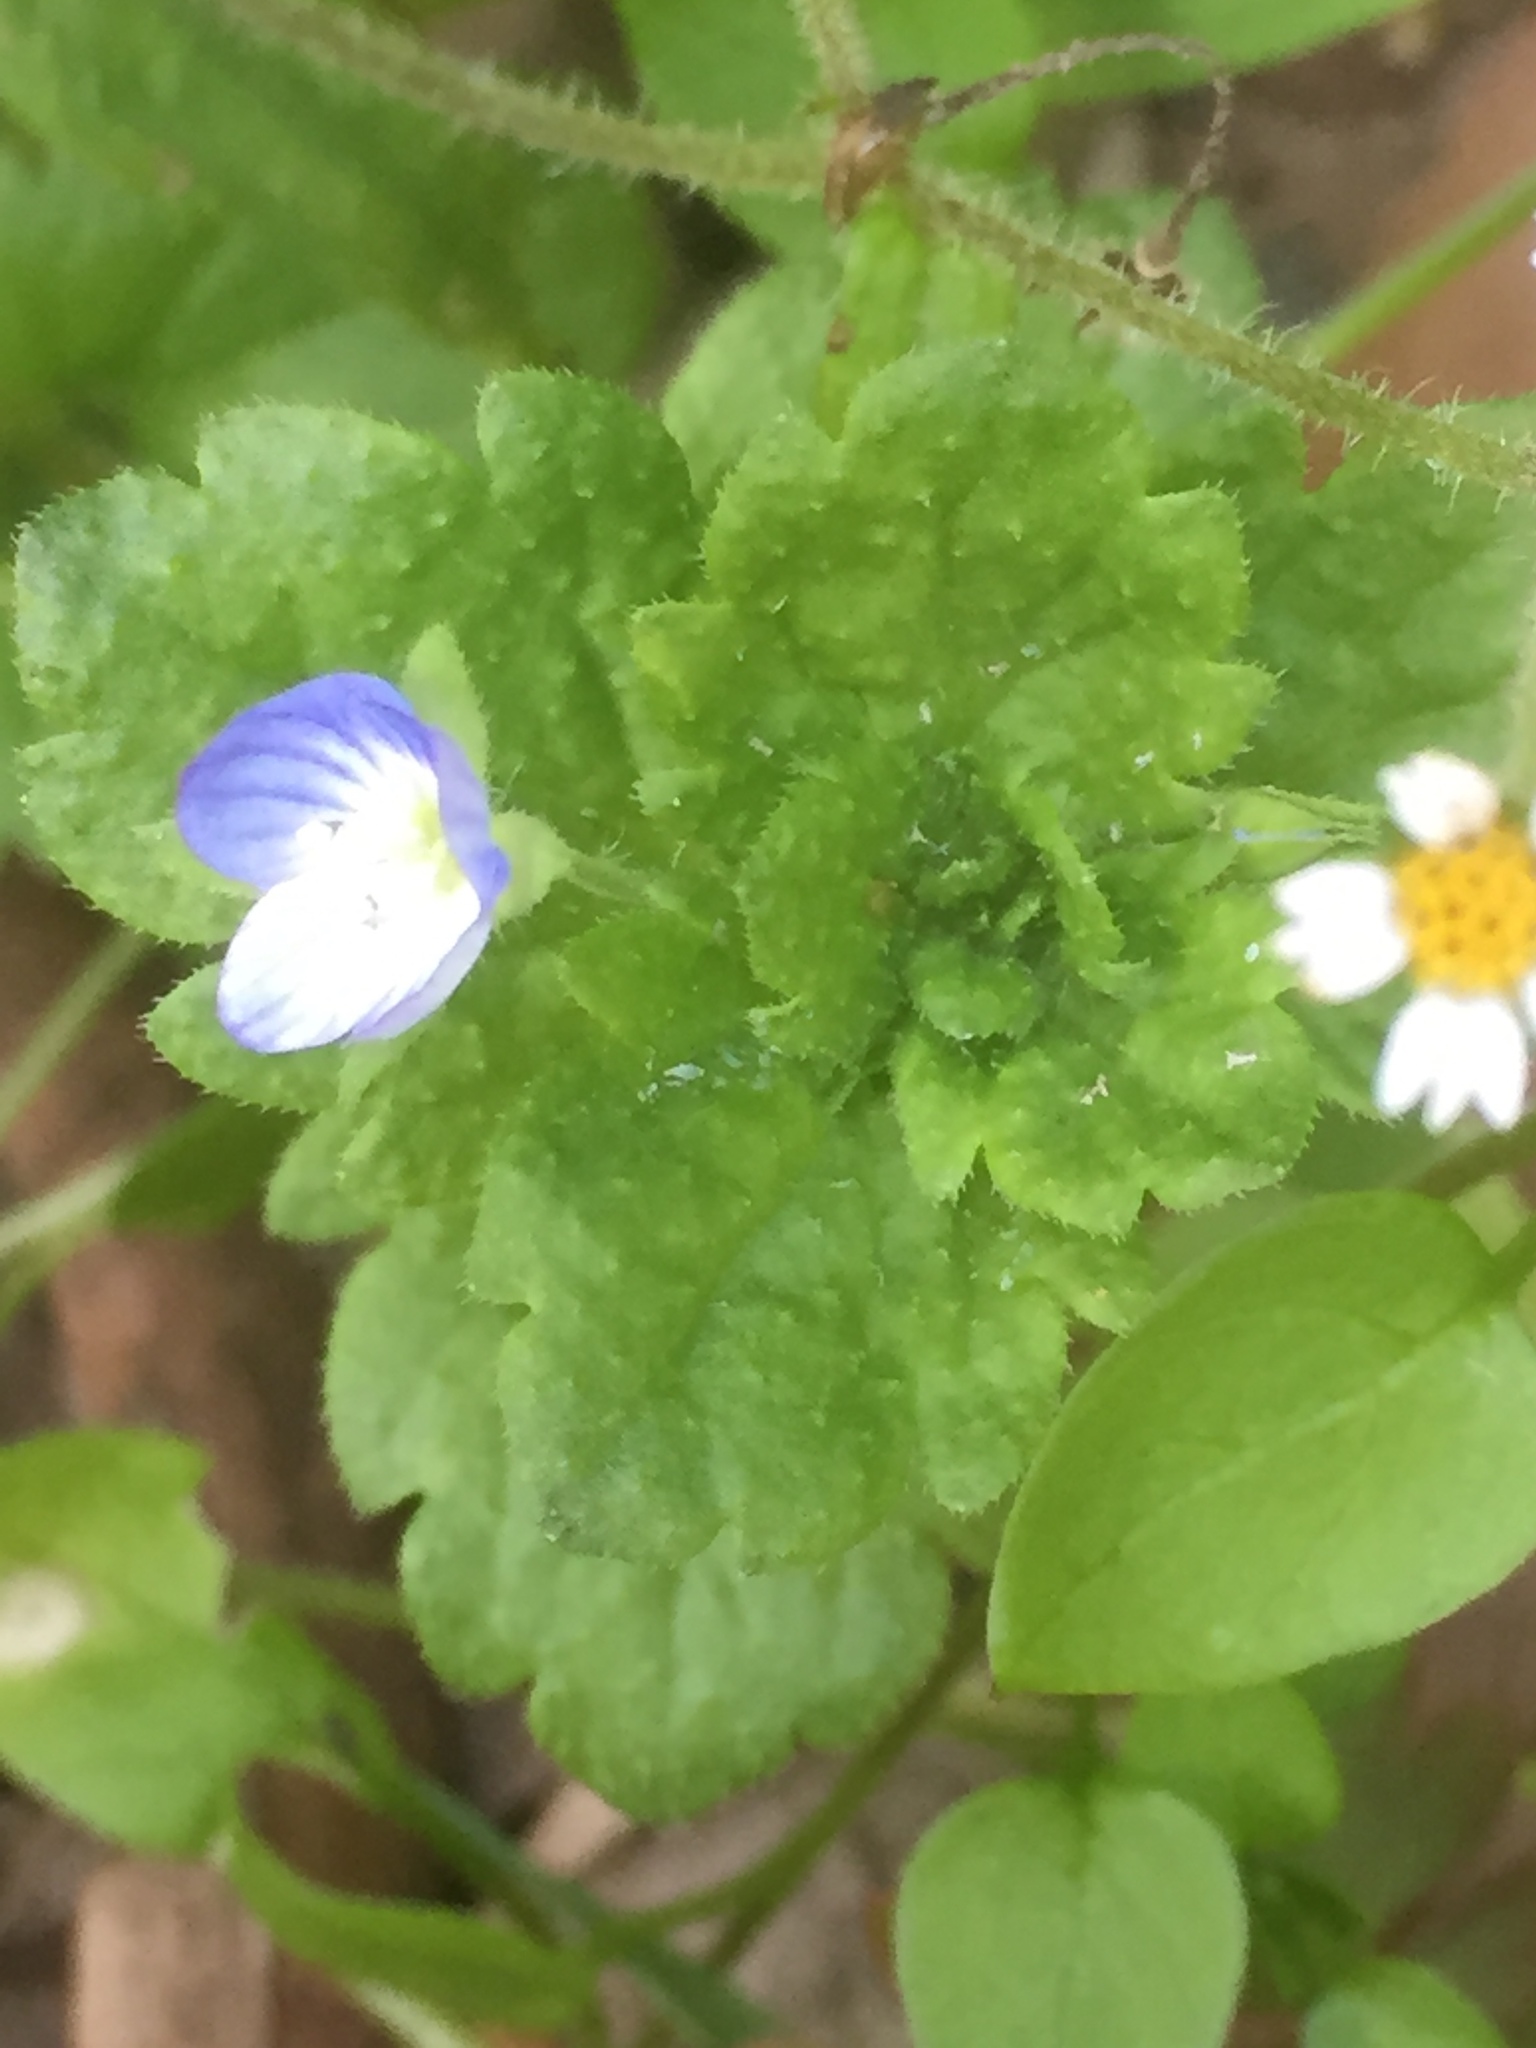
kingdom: Plantae
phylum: Tracheophyta
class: Magnoliopsida
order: Lamiales
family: Plantaginaceae
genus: Veronica
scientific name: Veronica persica
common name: Common field-speedwell
